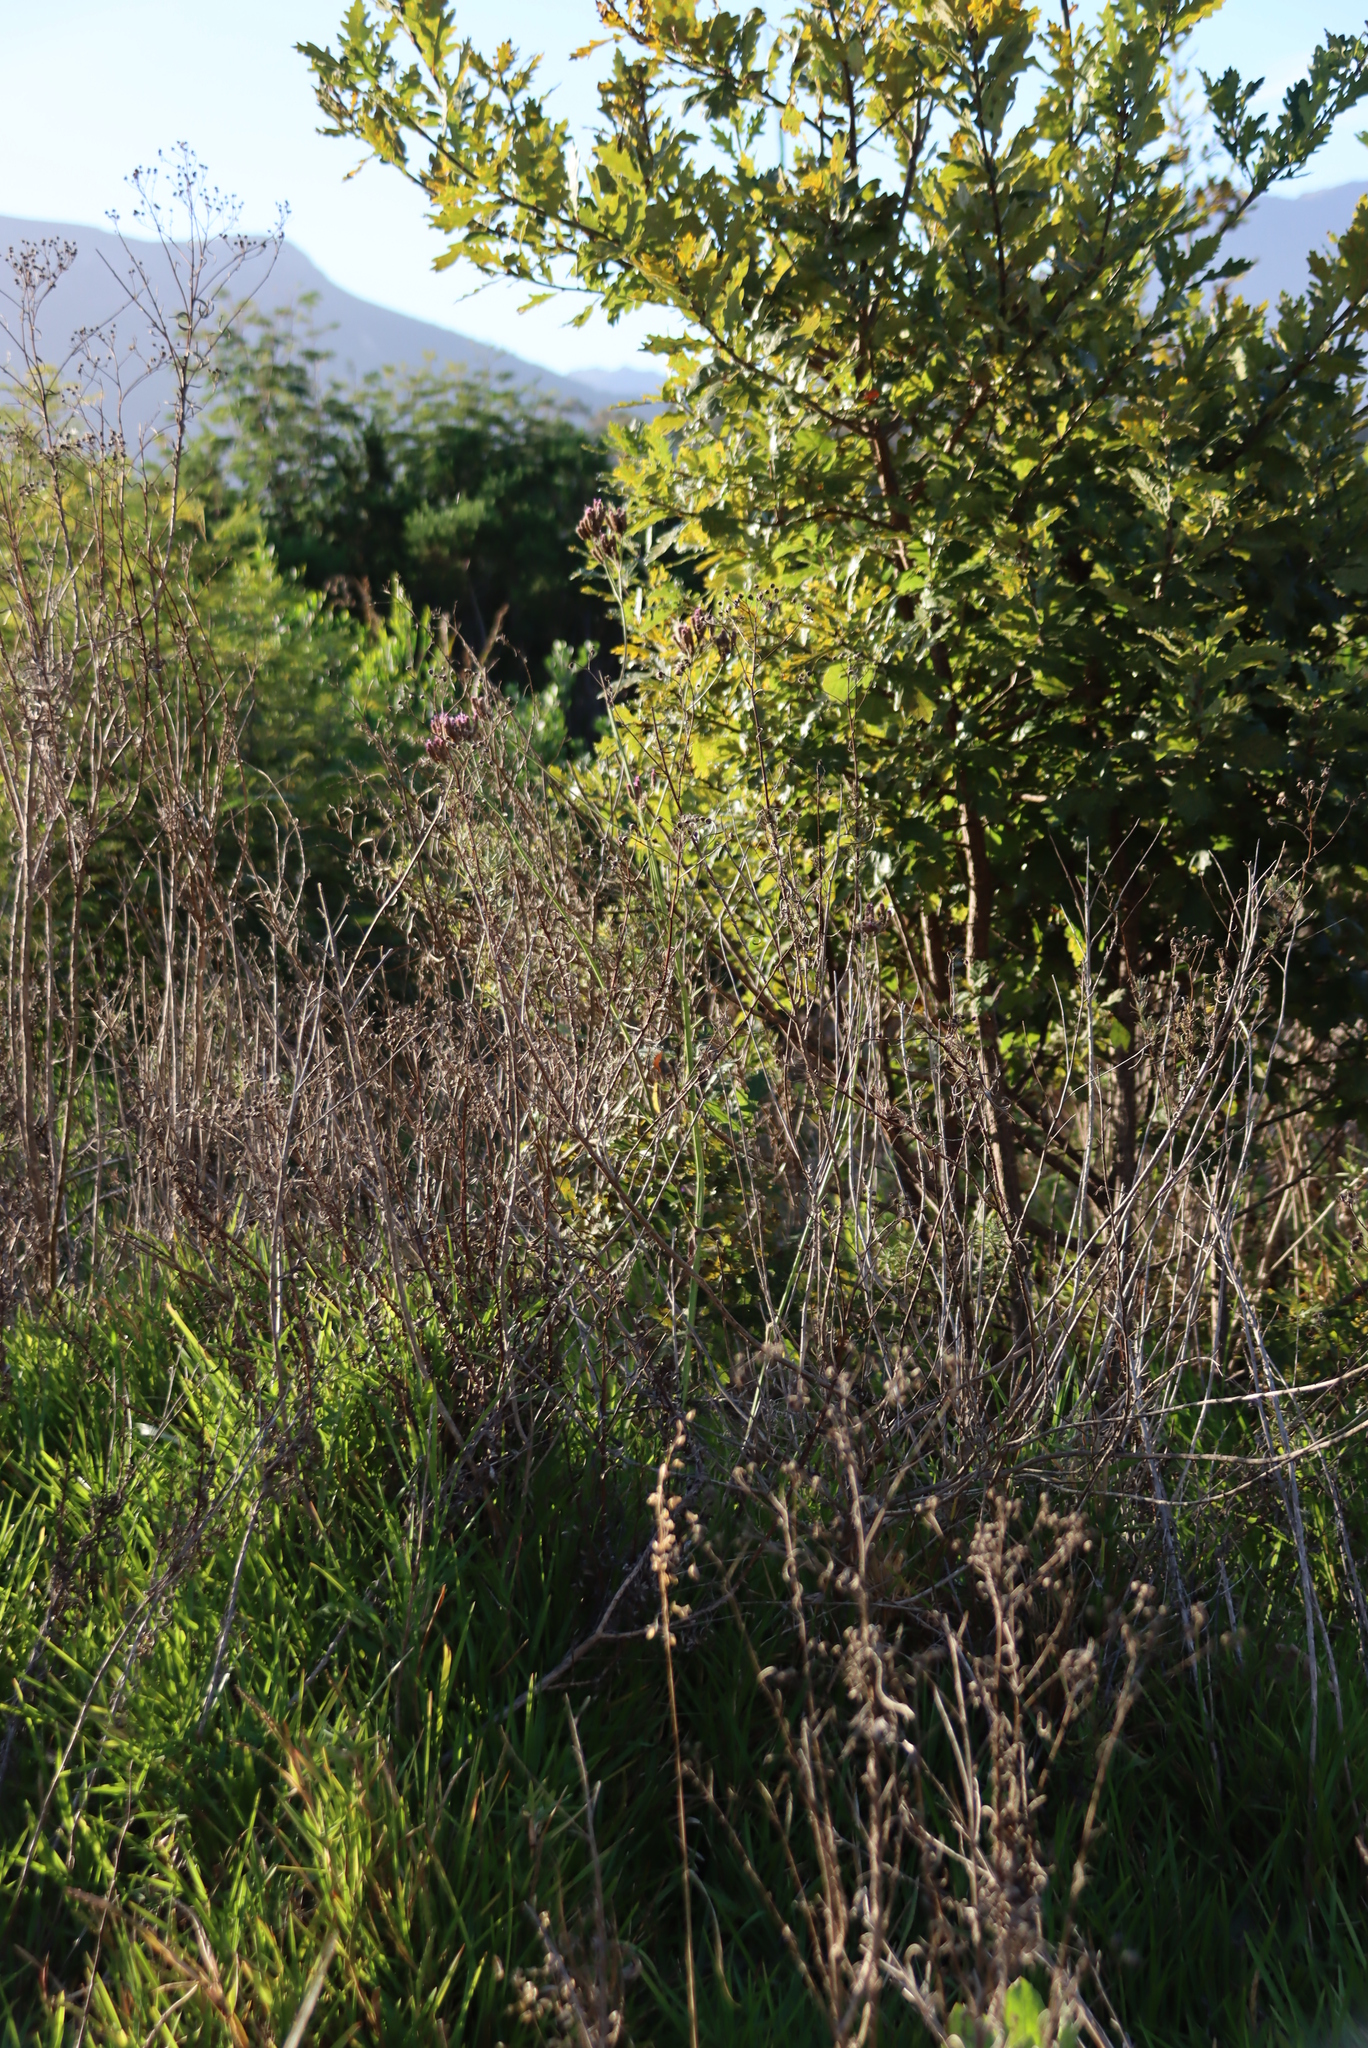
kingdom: Plantae
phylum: Tracheophyta
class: Magnoliopsida
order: Fagales
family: Fagaceae
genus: Quercus
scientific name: Quercus robur
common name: Pedunculate oak
